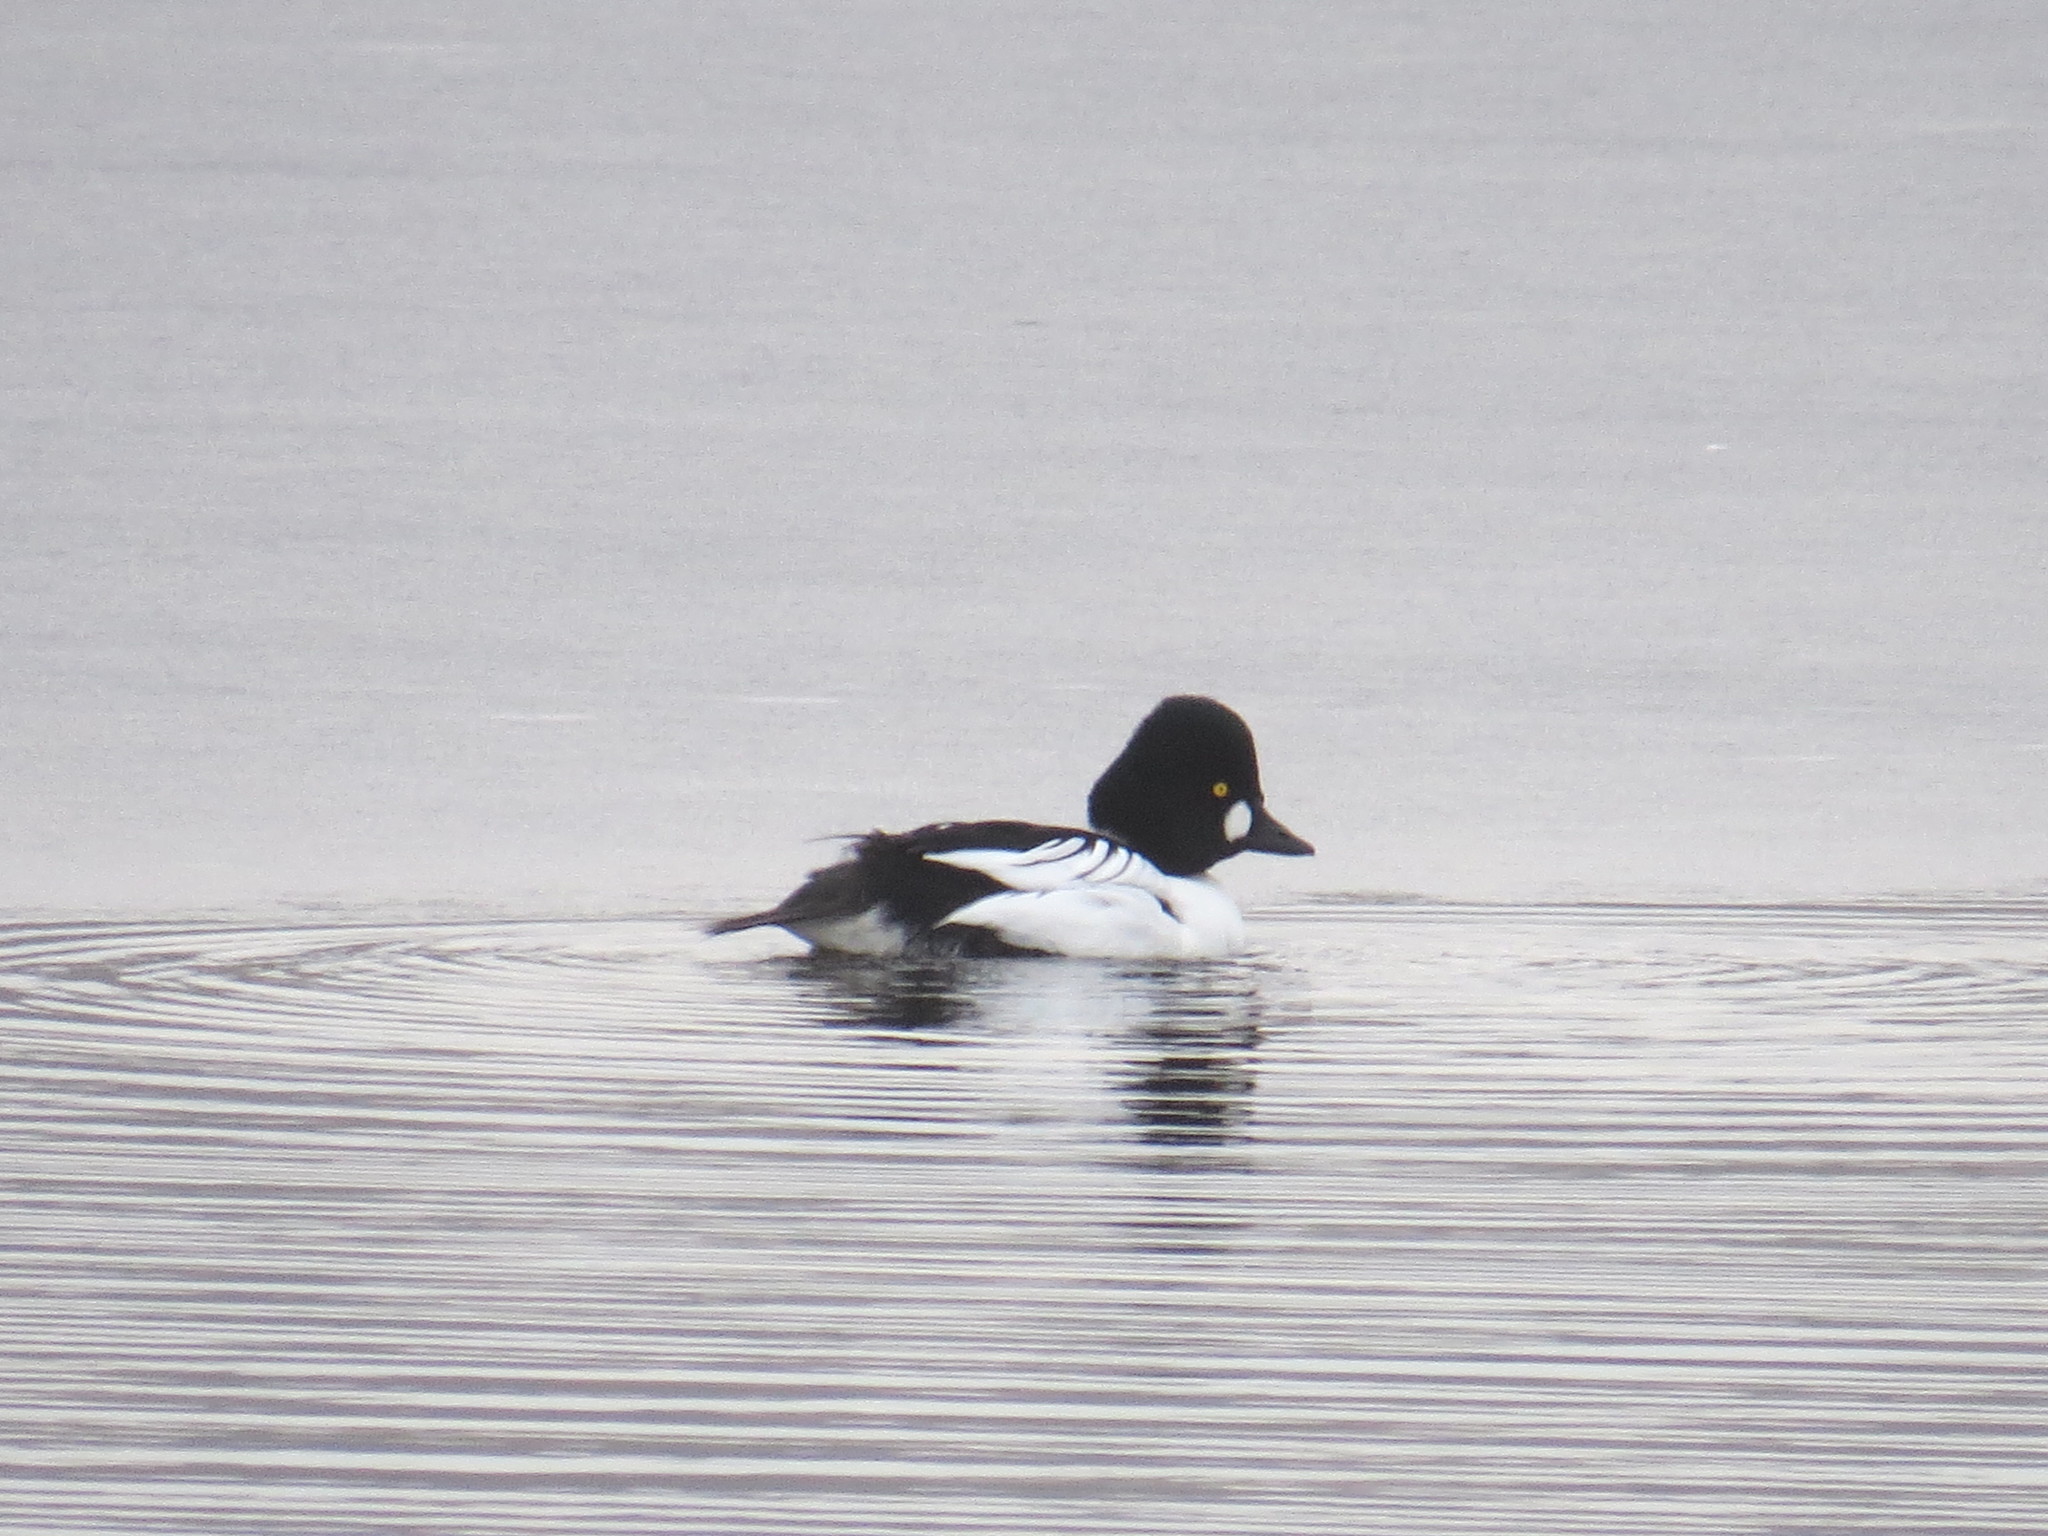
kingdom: Animalia
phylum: Chordata
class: Aves
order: Anseriformes
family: Anatidae
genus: Bucephala
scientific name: Bucephala clangula
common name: Common goldeneye
